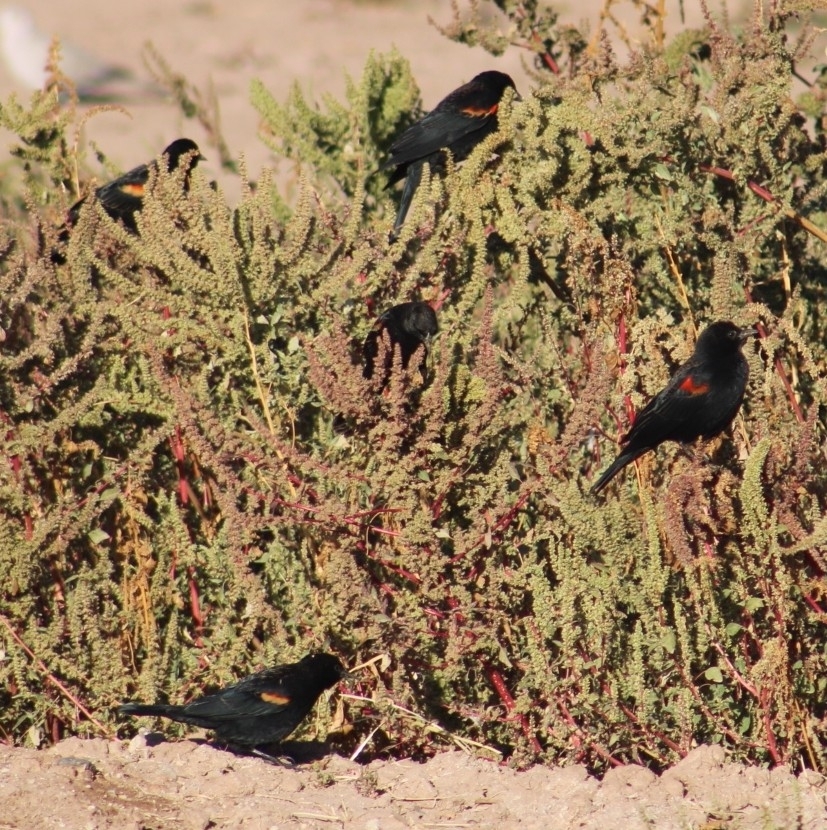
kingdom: Animalia
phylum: Chordata
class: Aves
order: Passeriformes
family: Icteridae
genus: Agelaius
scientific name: Agelaius phoeniceus
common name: Red-winged blackbird
